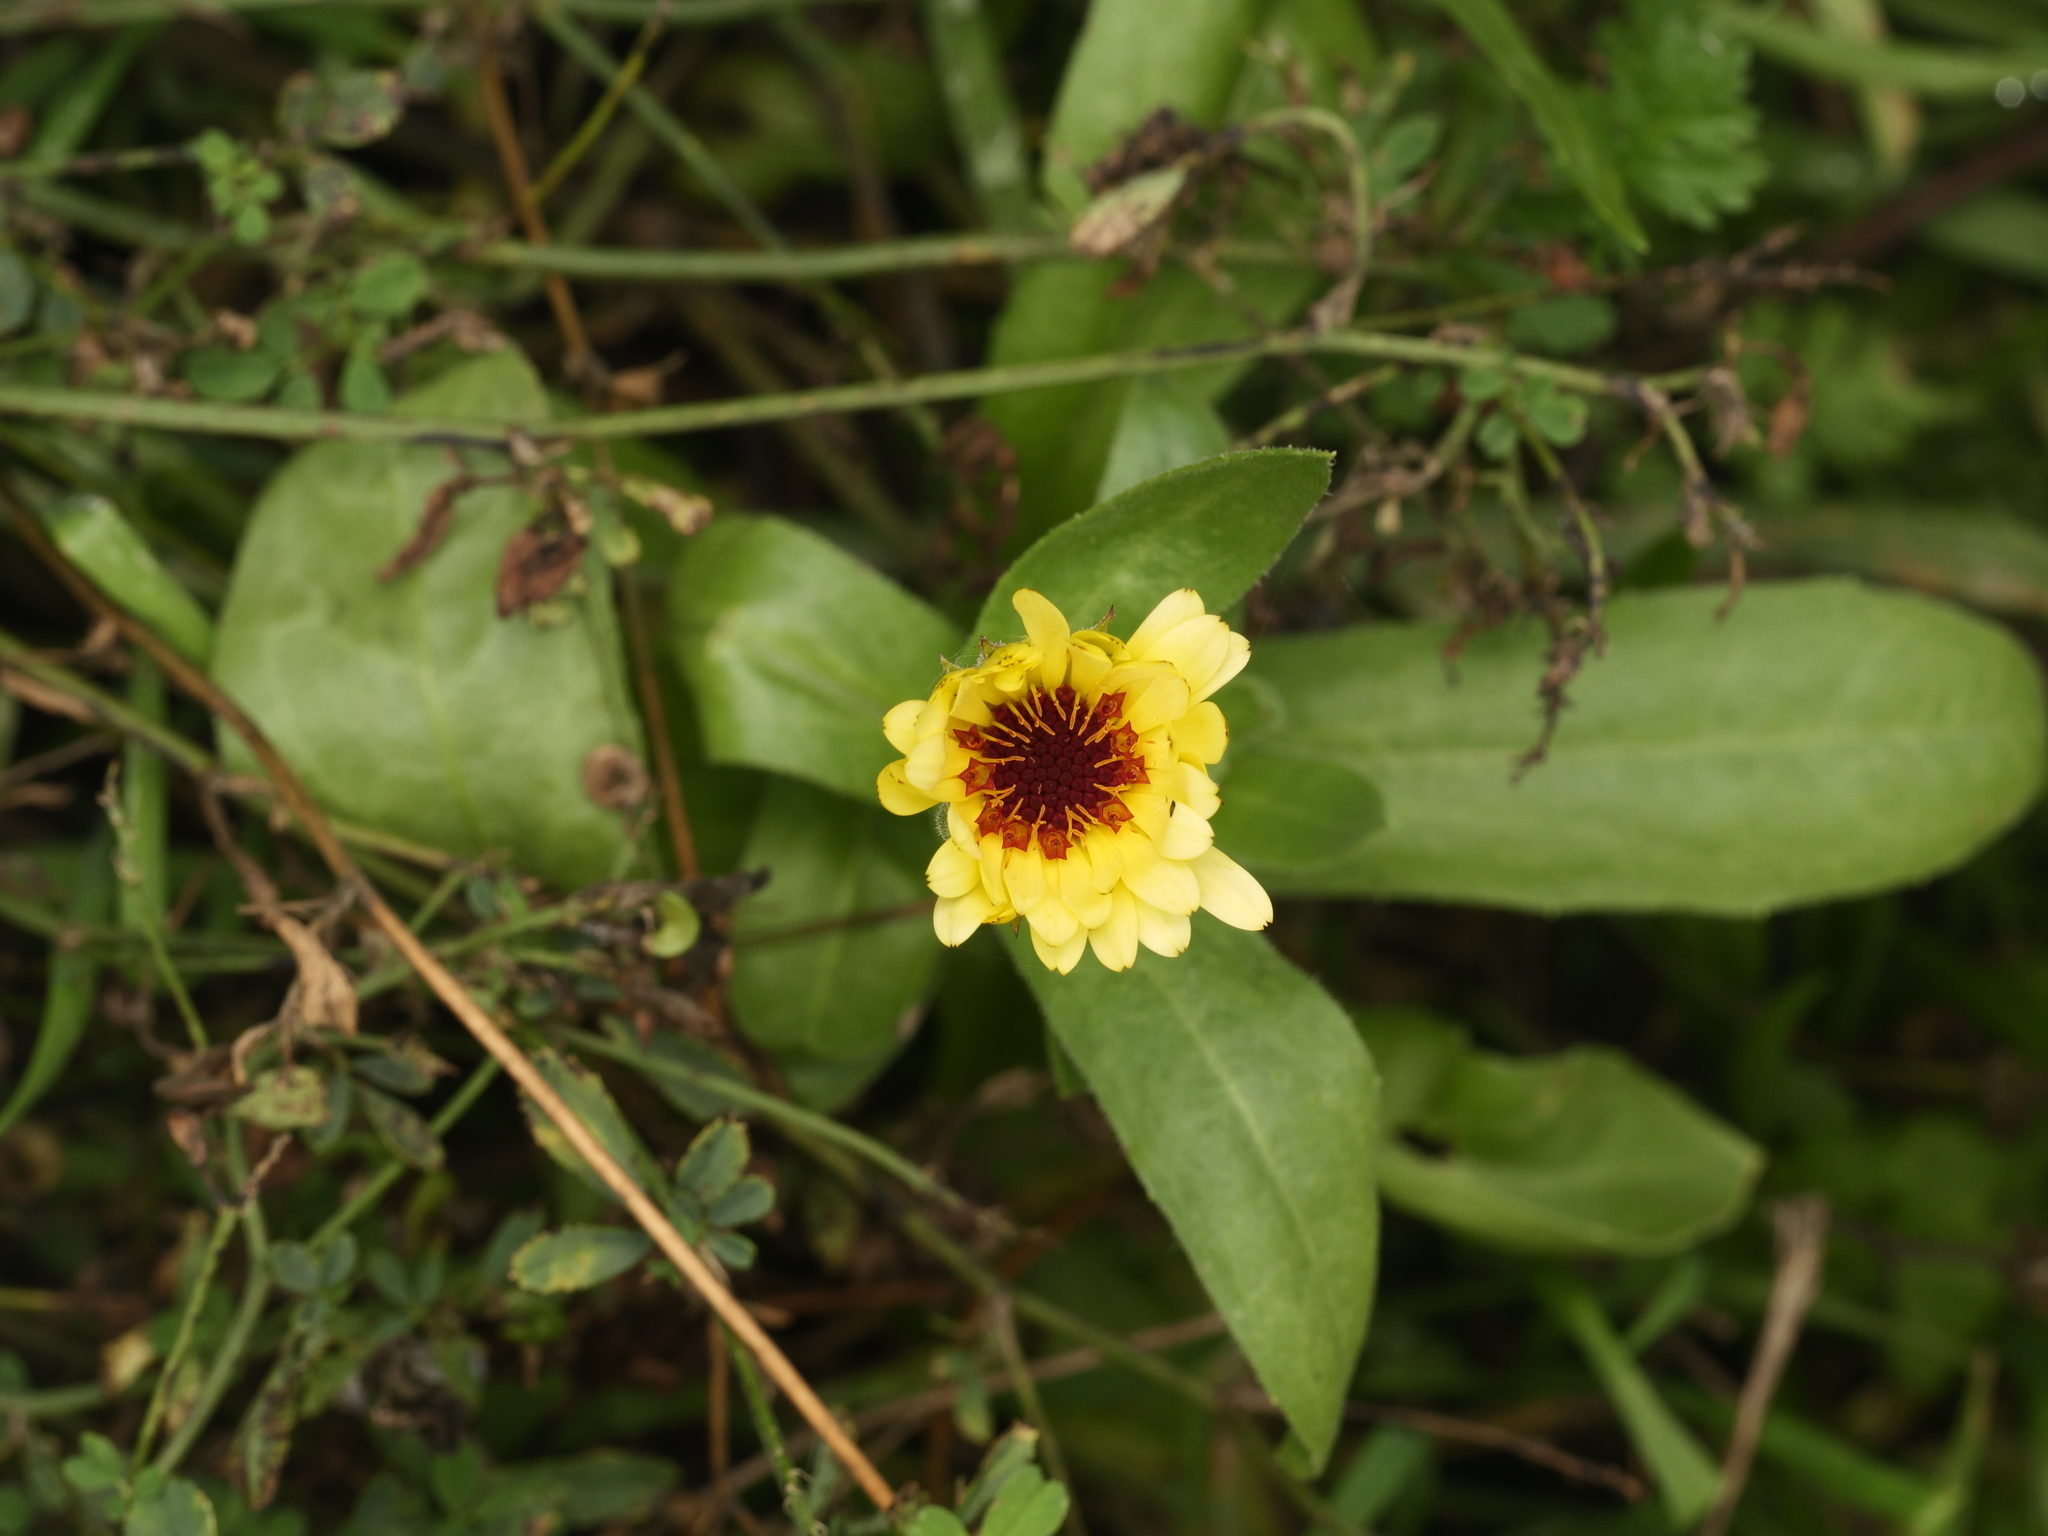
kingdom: Plantae
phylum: Tracheophyta
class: Magnoliopsida
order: Asterales
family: Asteraceae
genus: Calendula
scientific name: Calendula officinalis
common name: Pot marigold
